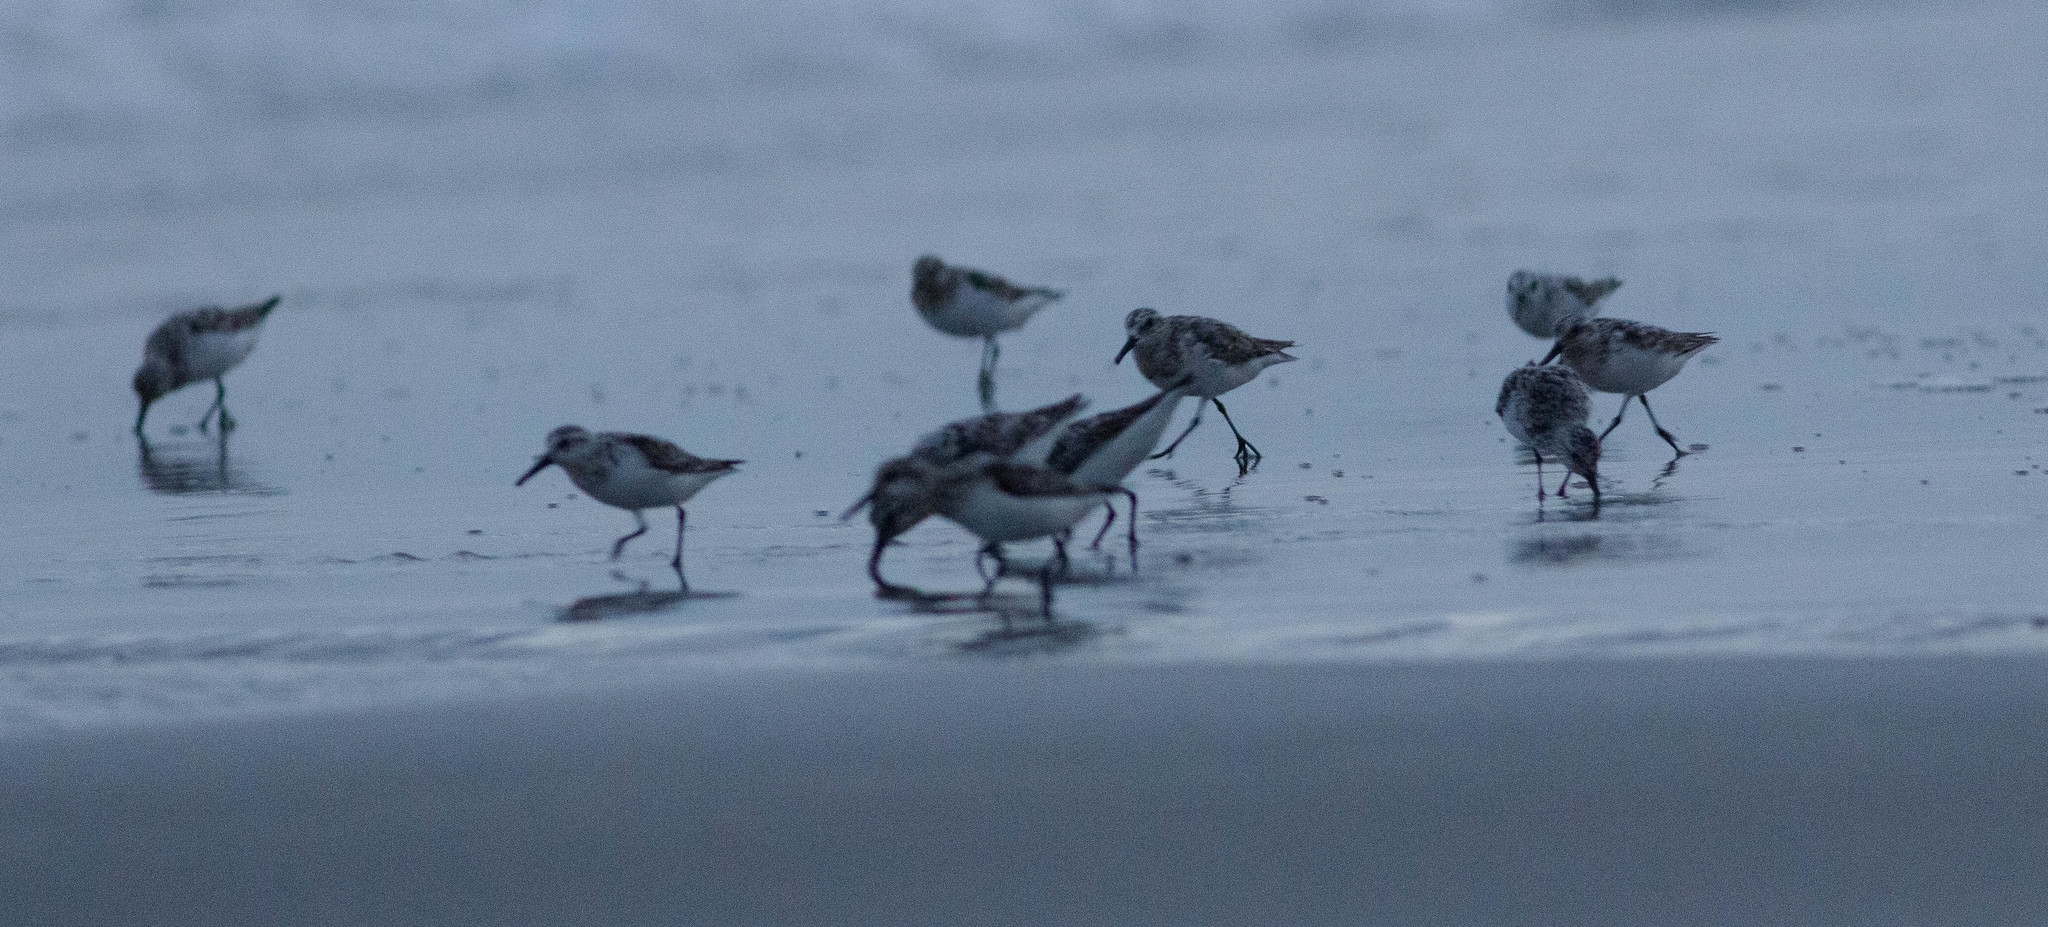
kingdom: Animalia
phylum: Chordata
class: Aves
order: Charadriiformes
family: Scolopacidae
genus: Calidris
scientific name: Calidris alba
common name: Sanderling
